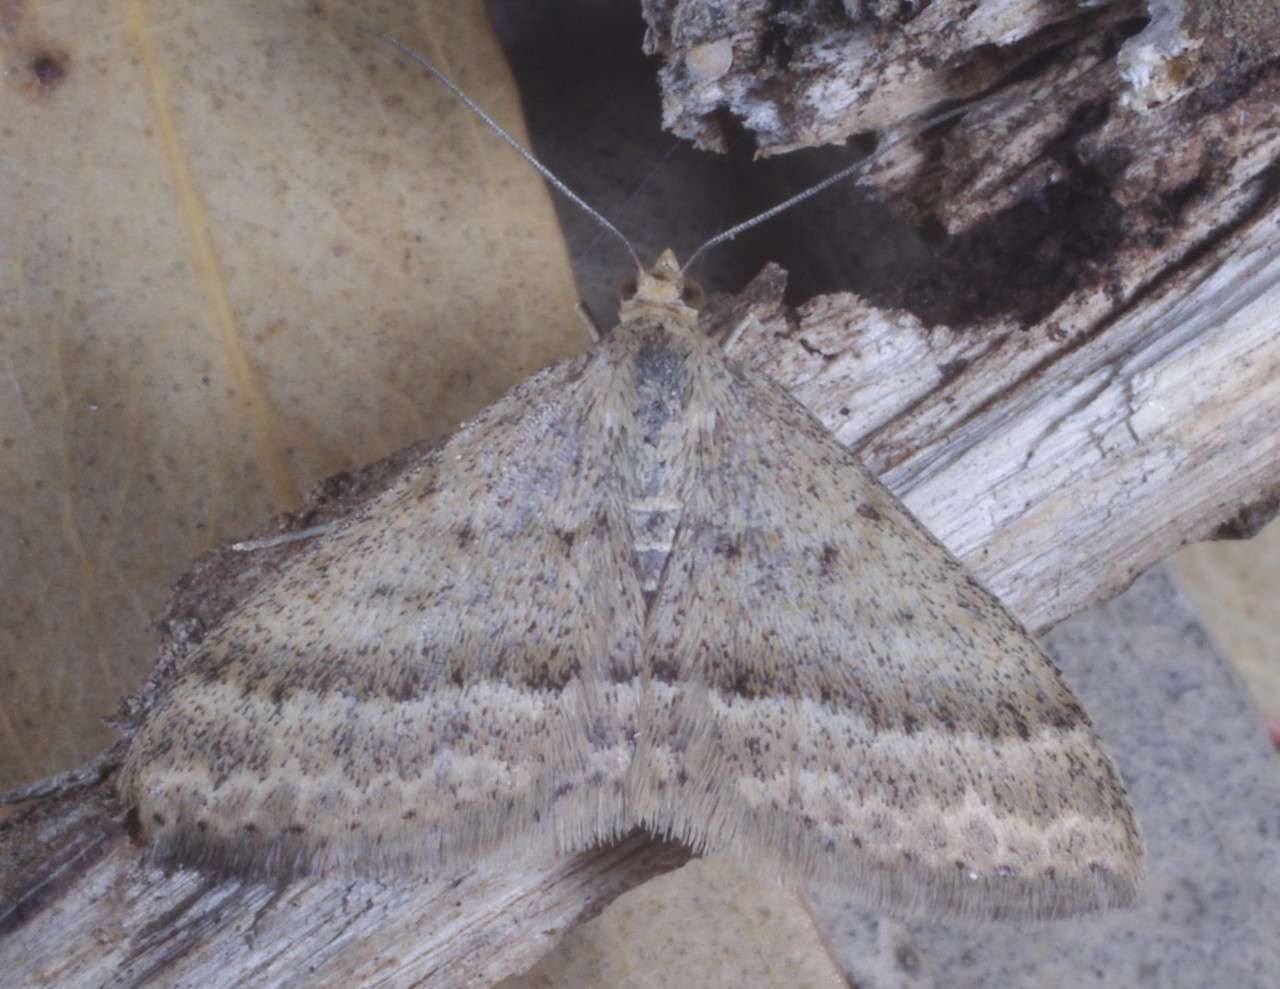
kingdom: Animalia
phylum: Arthropoda
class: Insecta
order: Lepidoptera
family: Geometridae
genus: Scopula
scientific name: Scopula lydia
